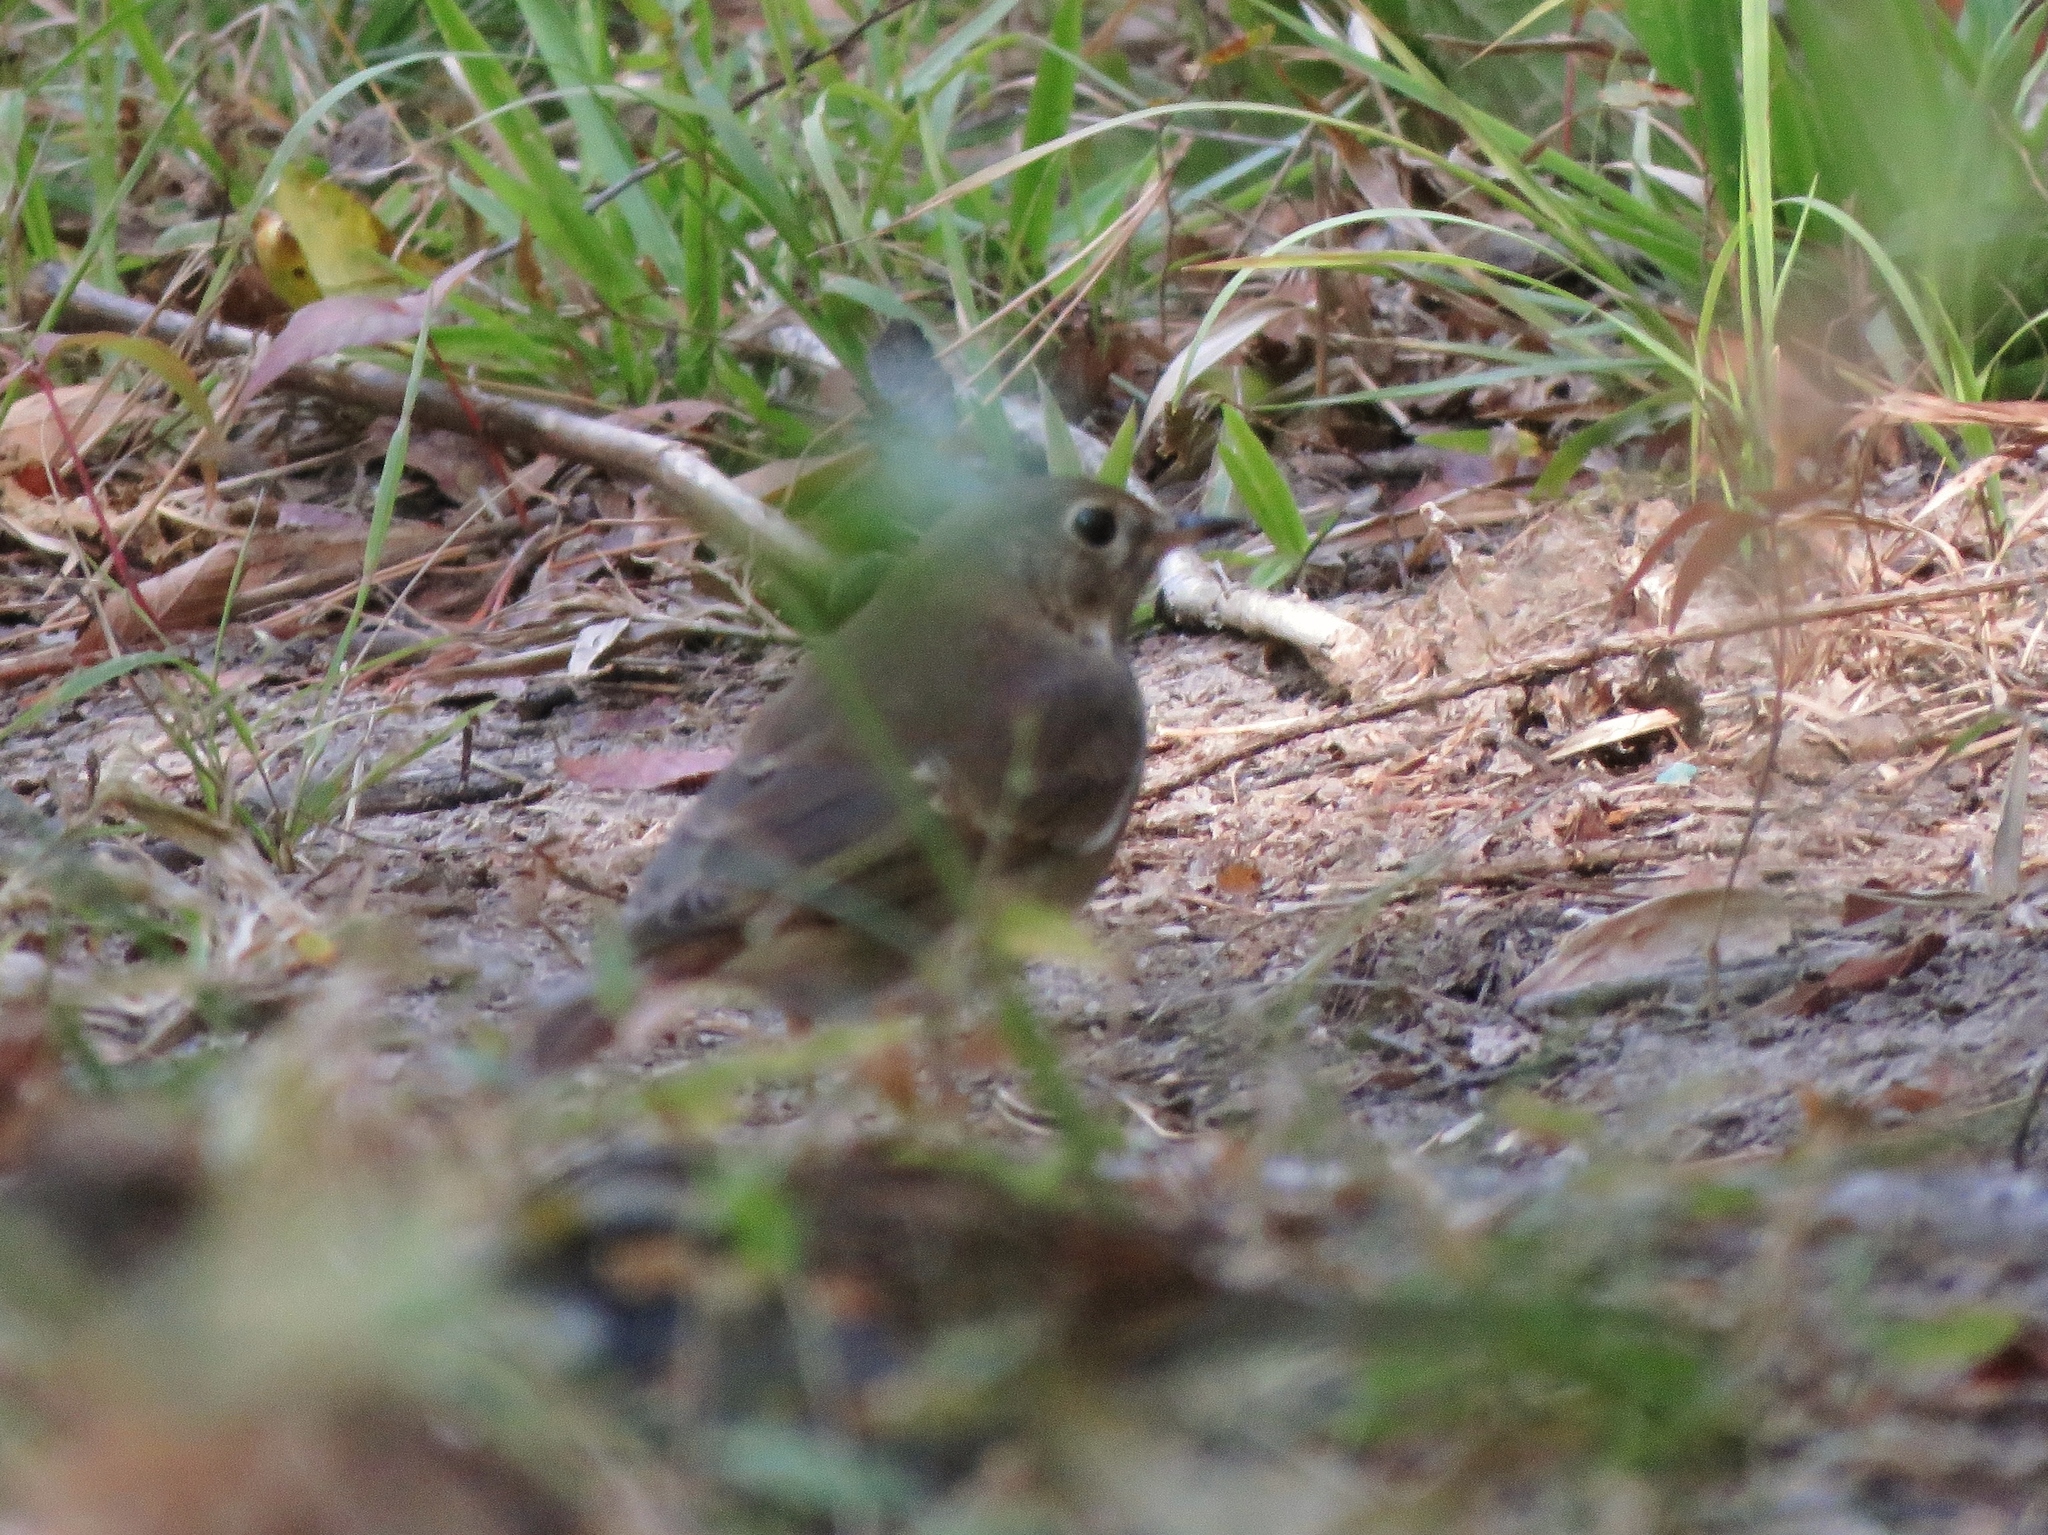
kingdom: Animalia
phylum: Chordata
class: Aves
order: Passeriformes
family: Turdidae
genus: Catharus
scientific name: Catharus guttatus
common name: Hermit thrush
